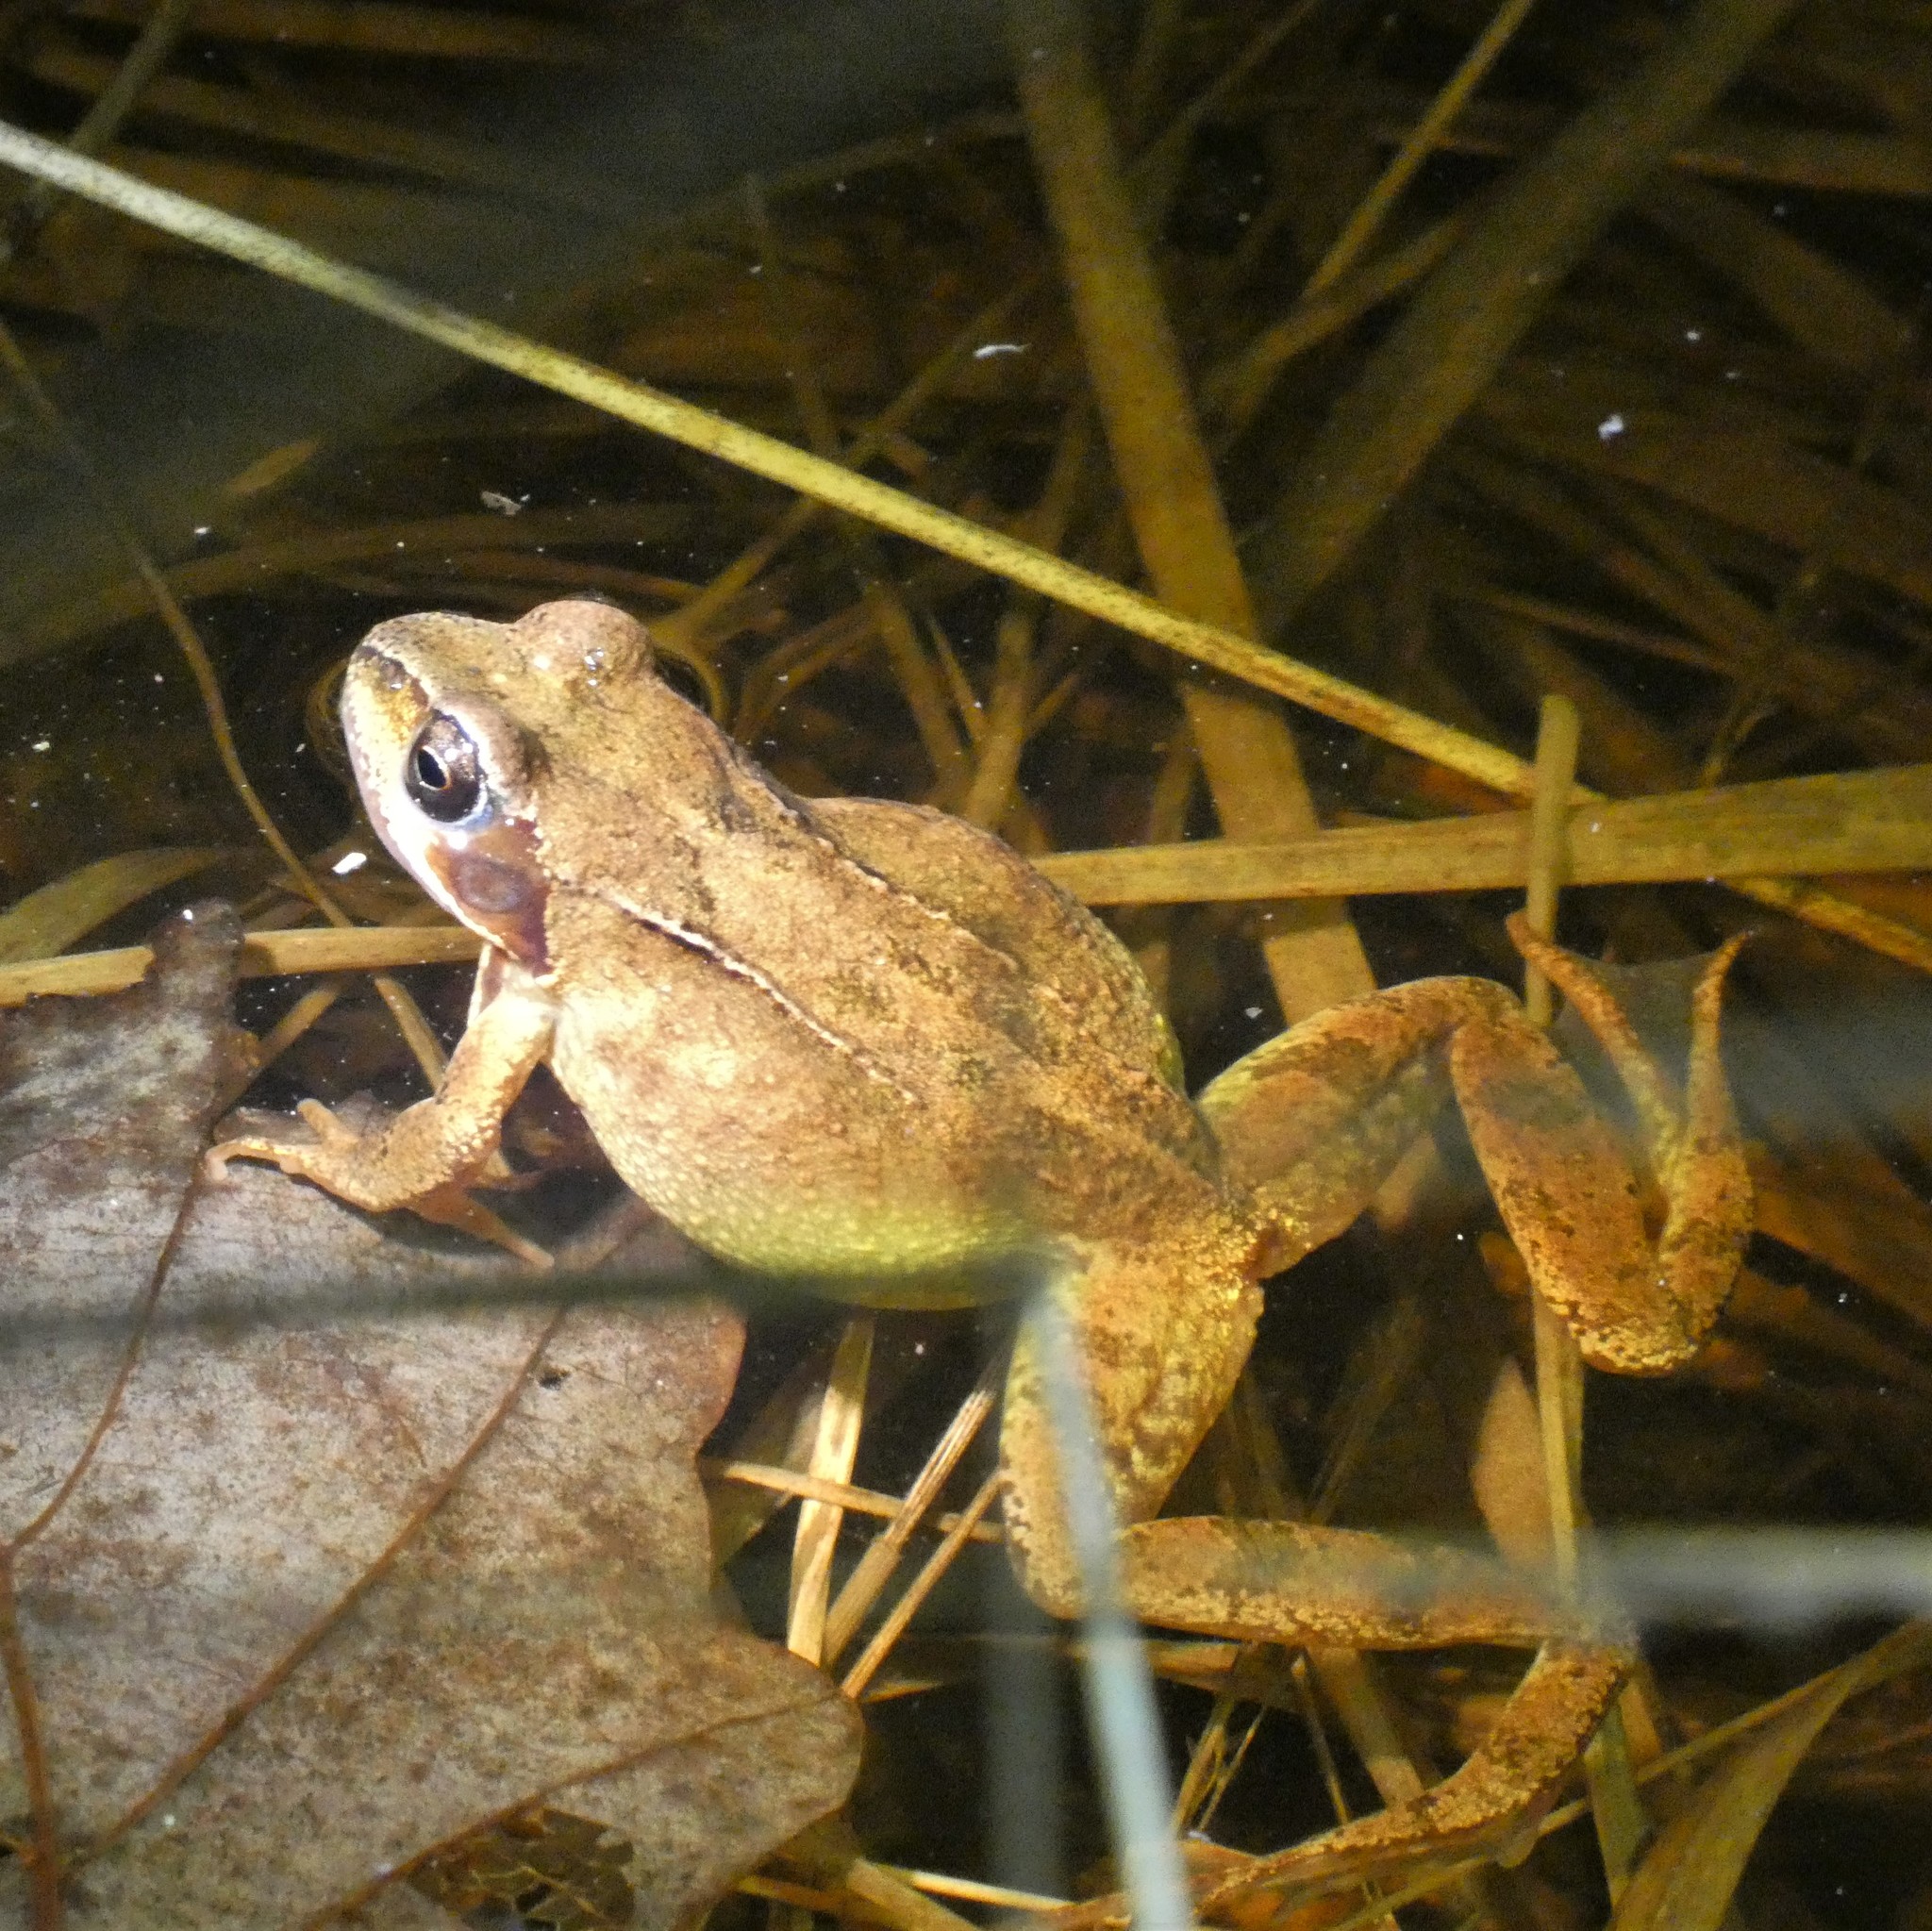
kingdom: Animalia
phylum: Chordata
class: Amphibia
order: Anura
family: Ranidae
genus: Rana
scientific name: Rana temporaria
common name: Common frog
